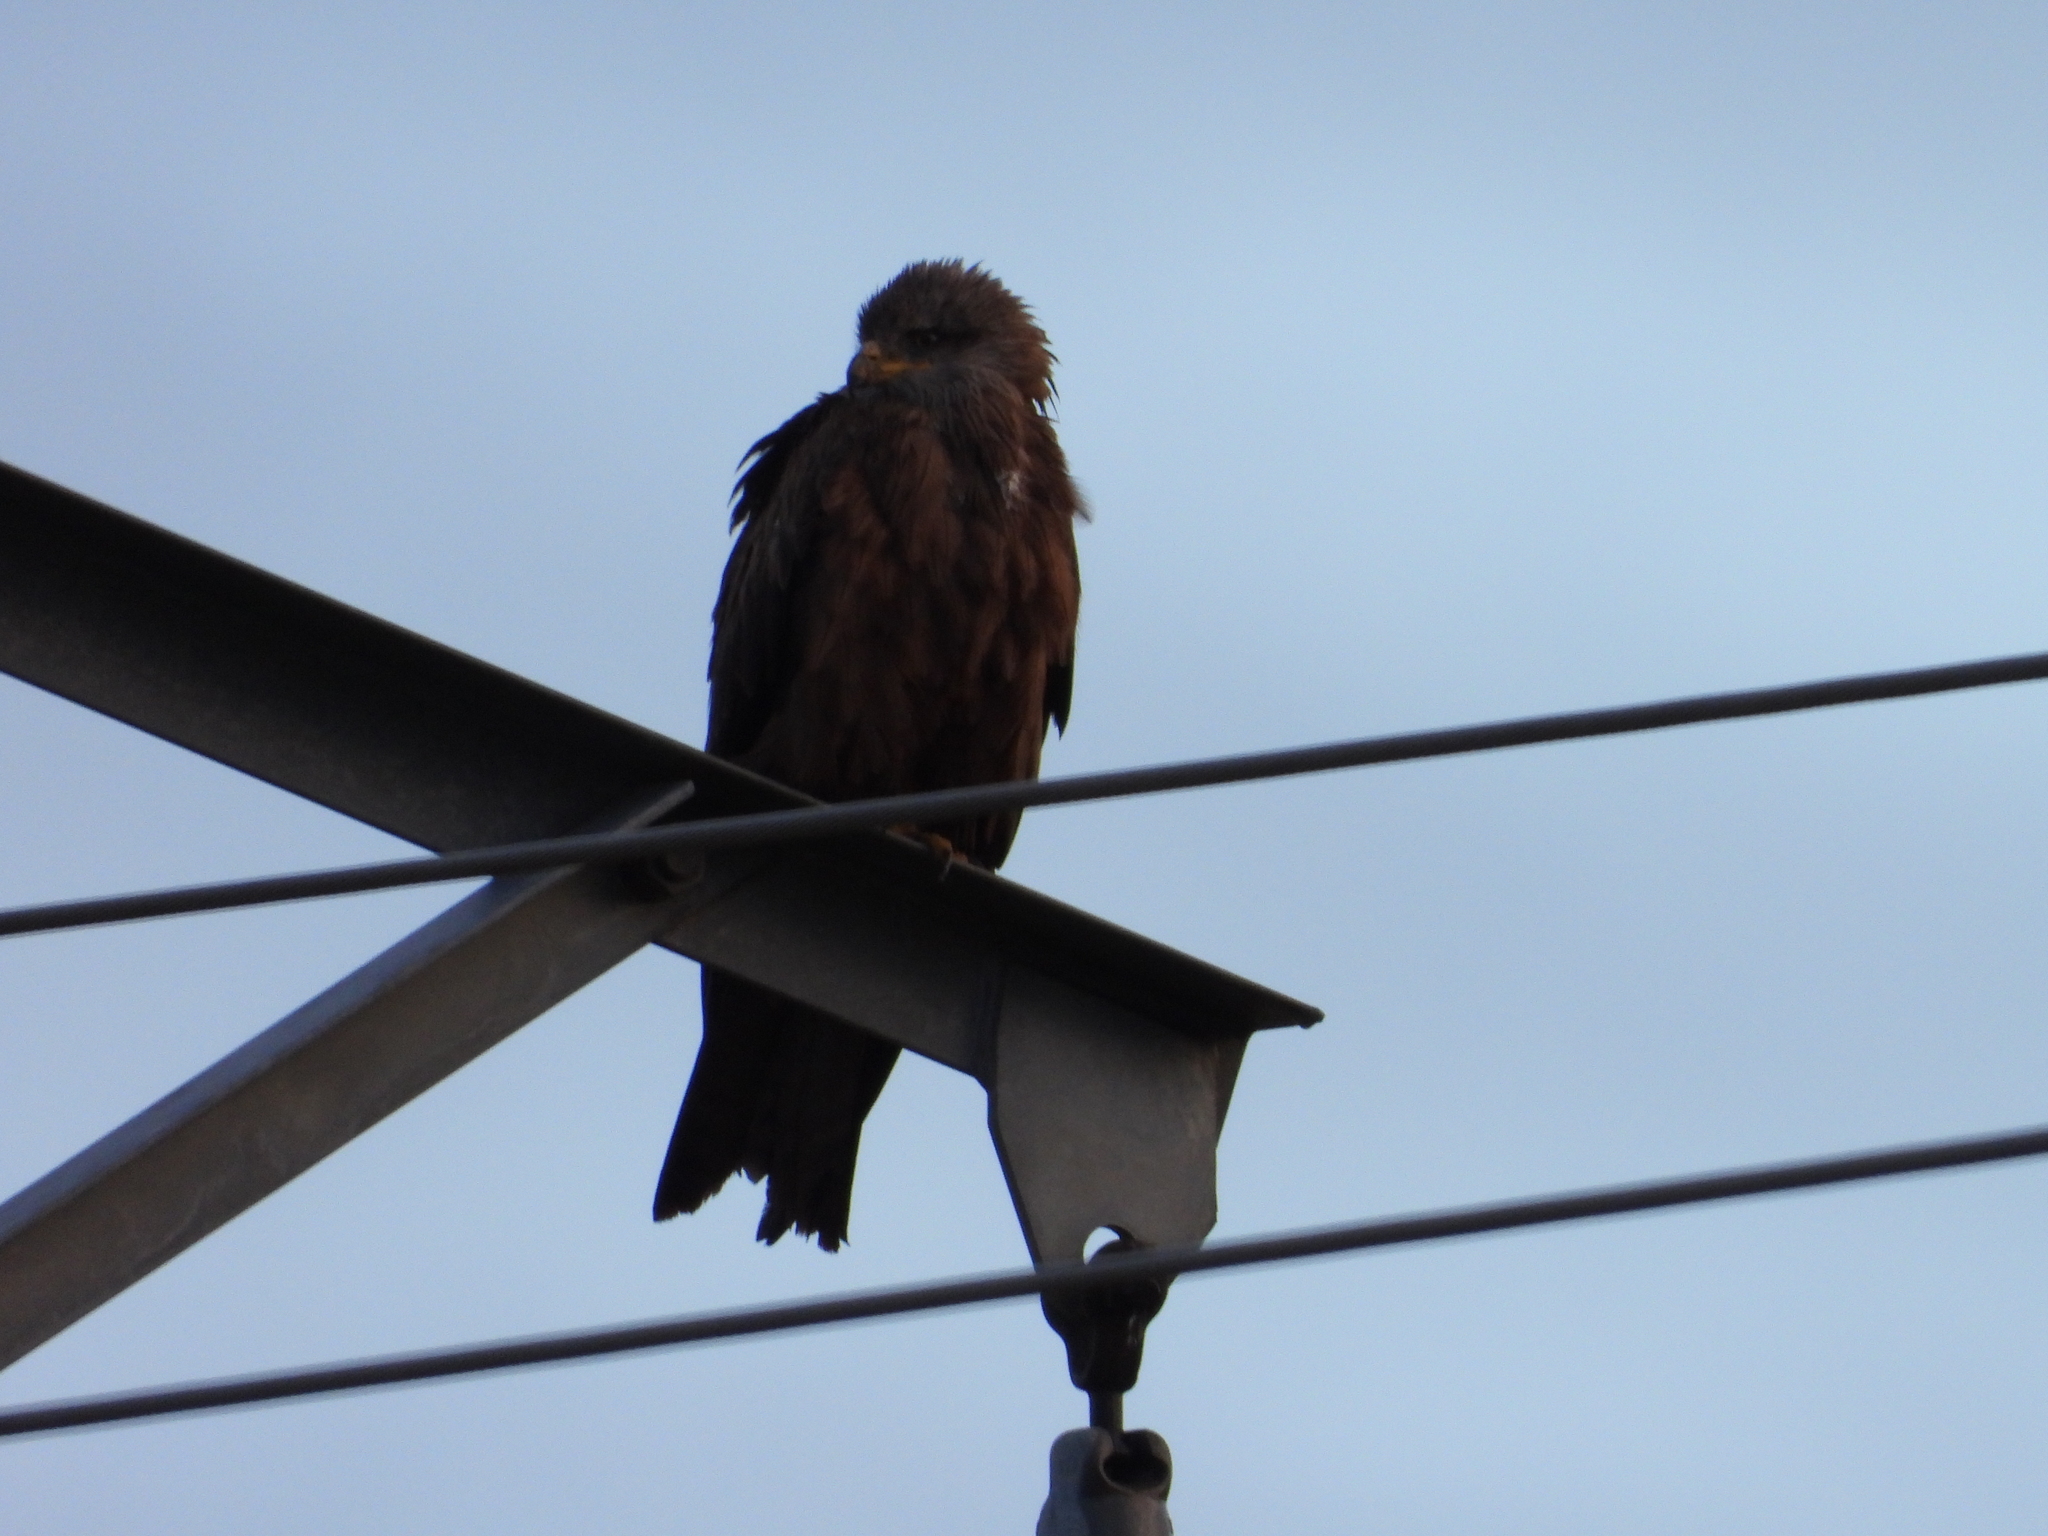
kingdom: Animalia
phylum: Chordata
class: Aves
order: Accipitriformes
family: Accipitridae
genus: Milvus
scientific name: Milvus migrans
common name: Black kite
